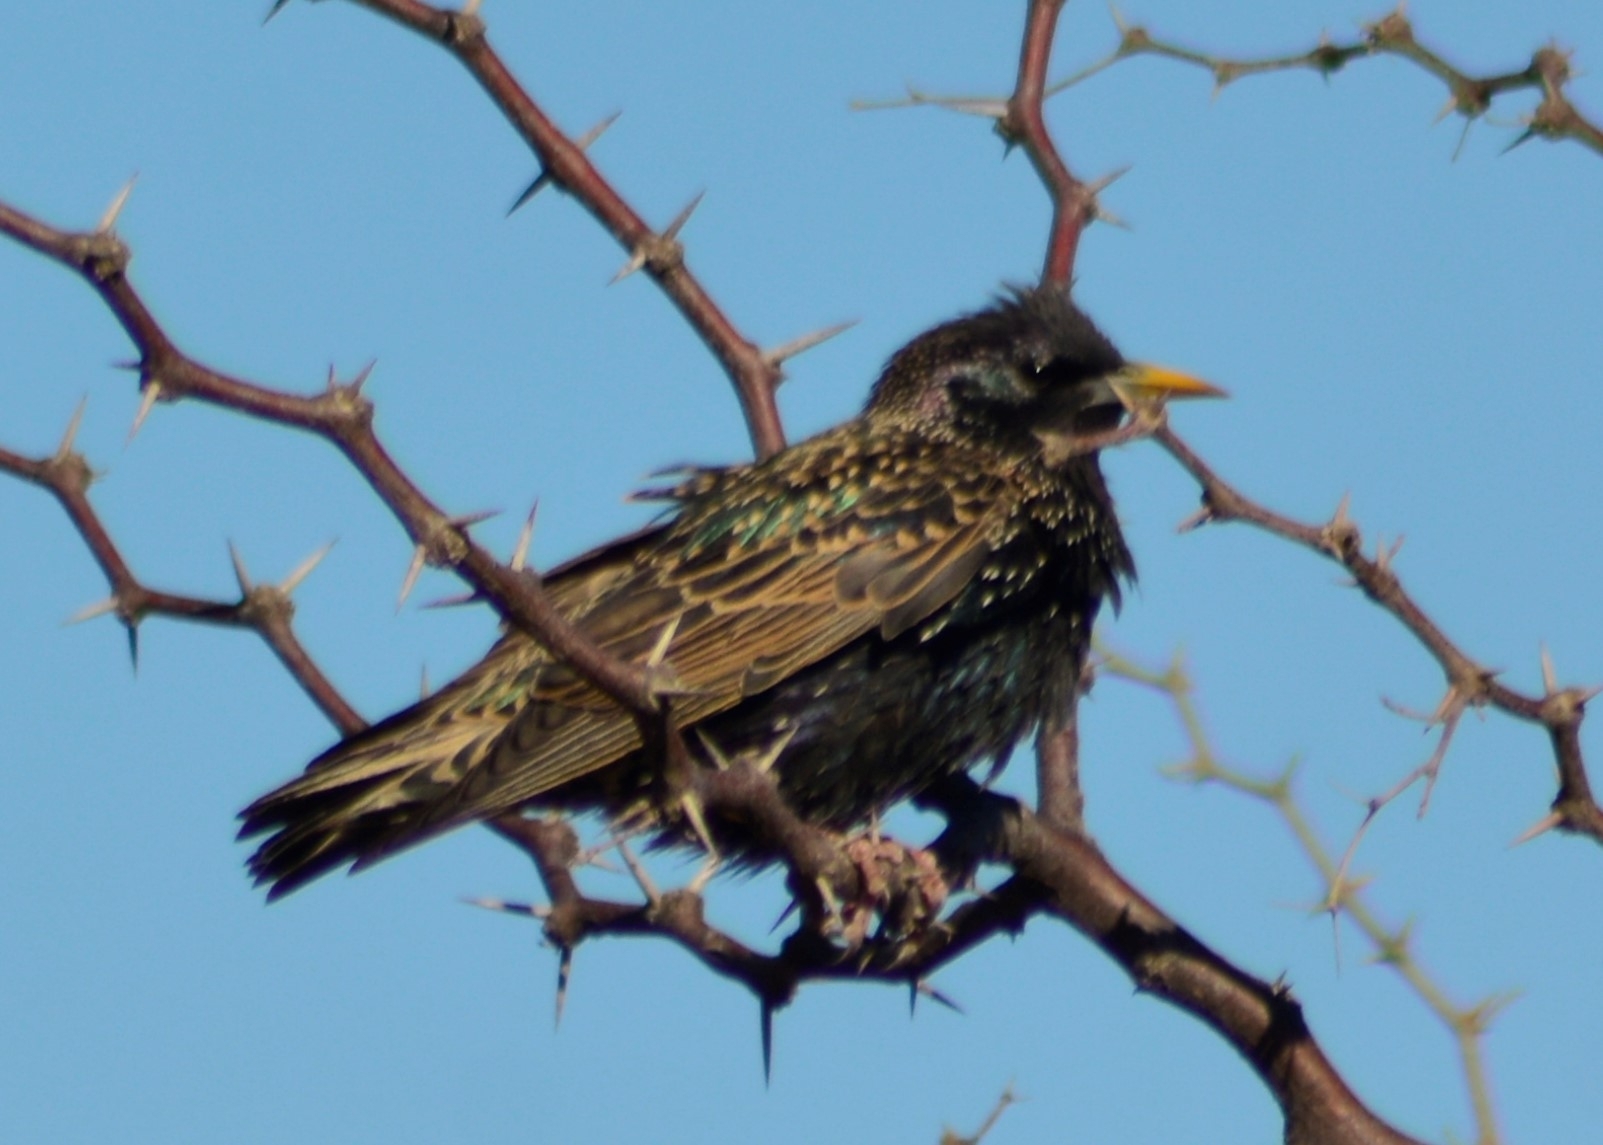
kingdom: Animalia
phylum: Chordata
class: Aves
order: Passeriformes
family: Sturnidae
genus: Sturnus
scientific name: Sturnus vulgaris
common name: Common starling
